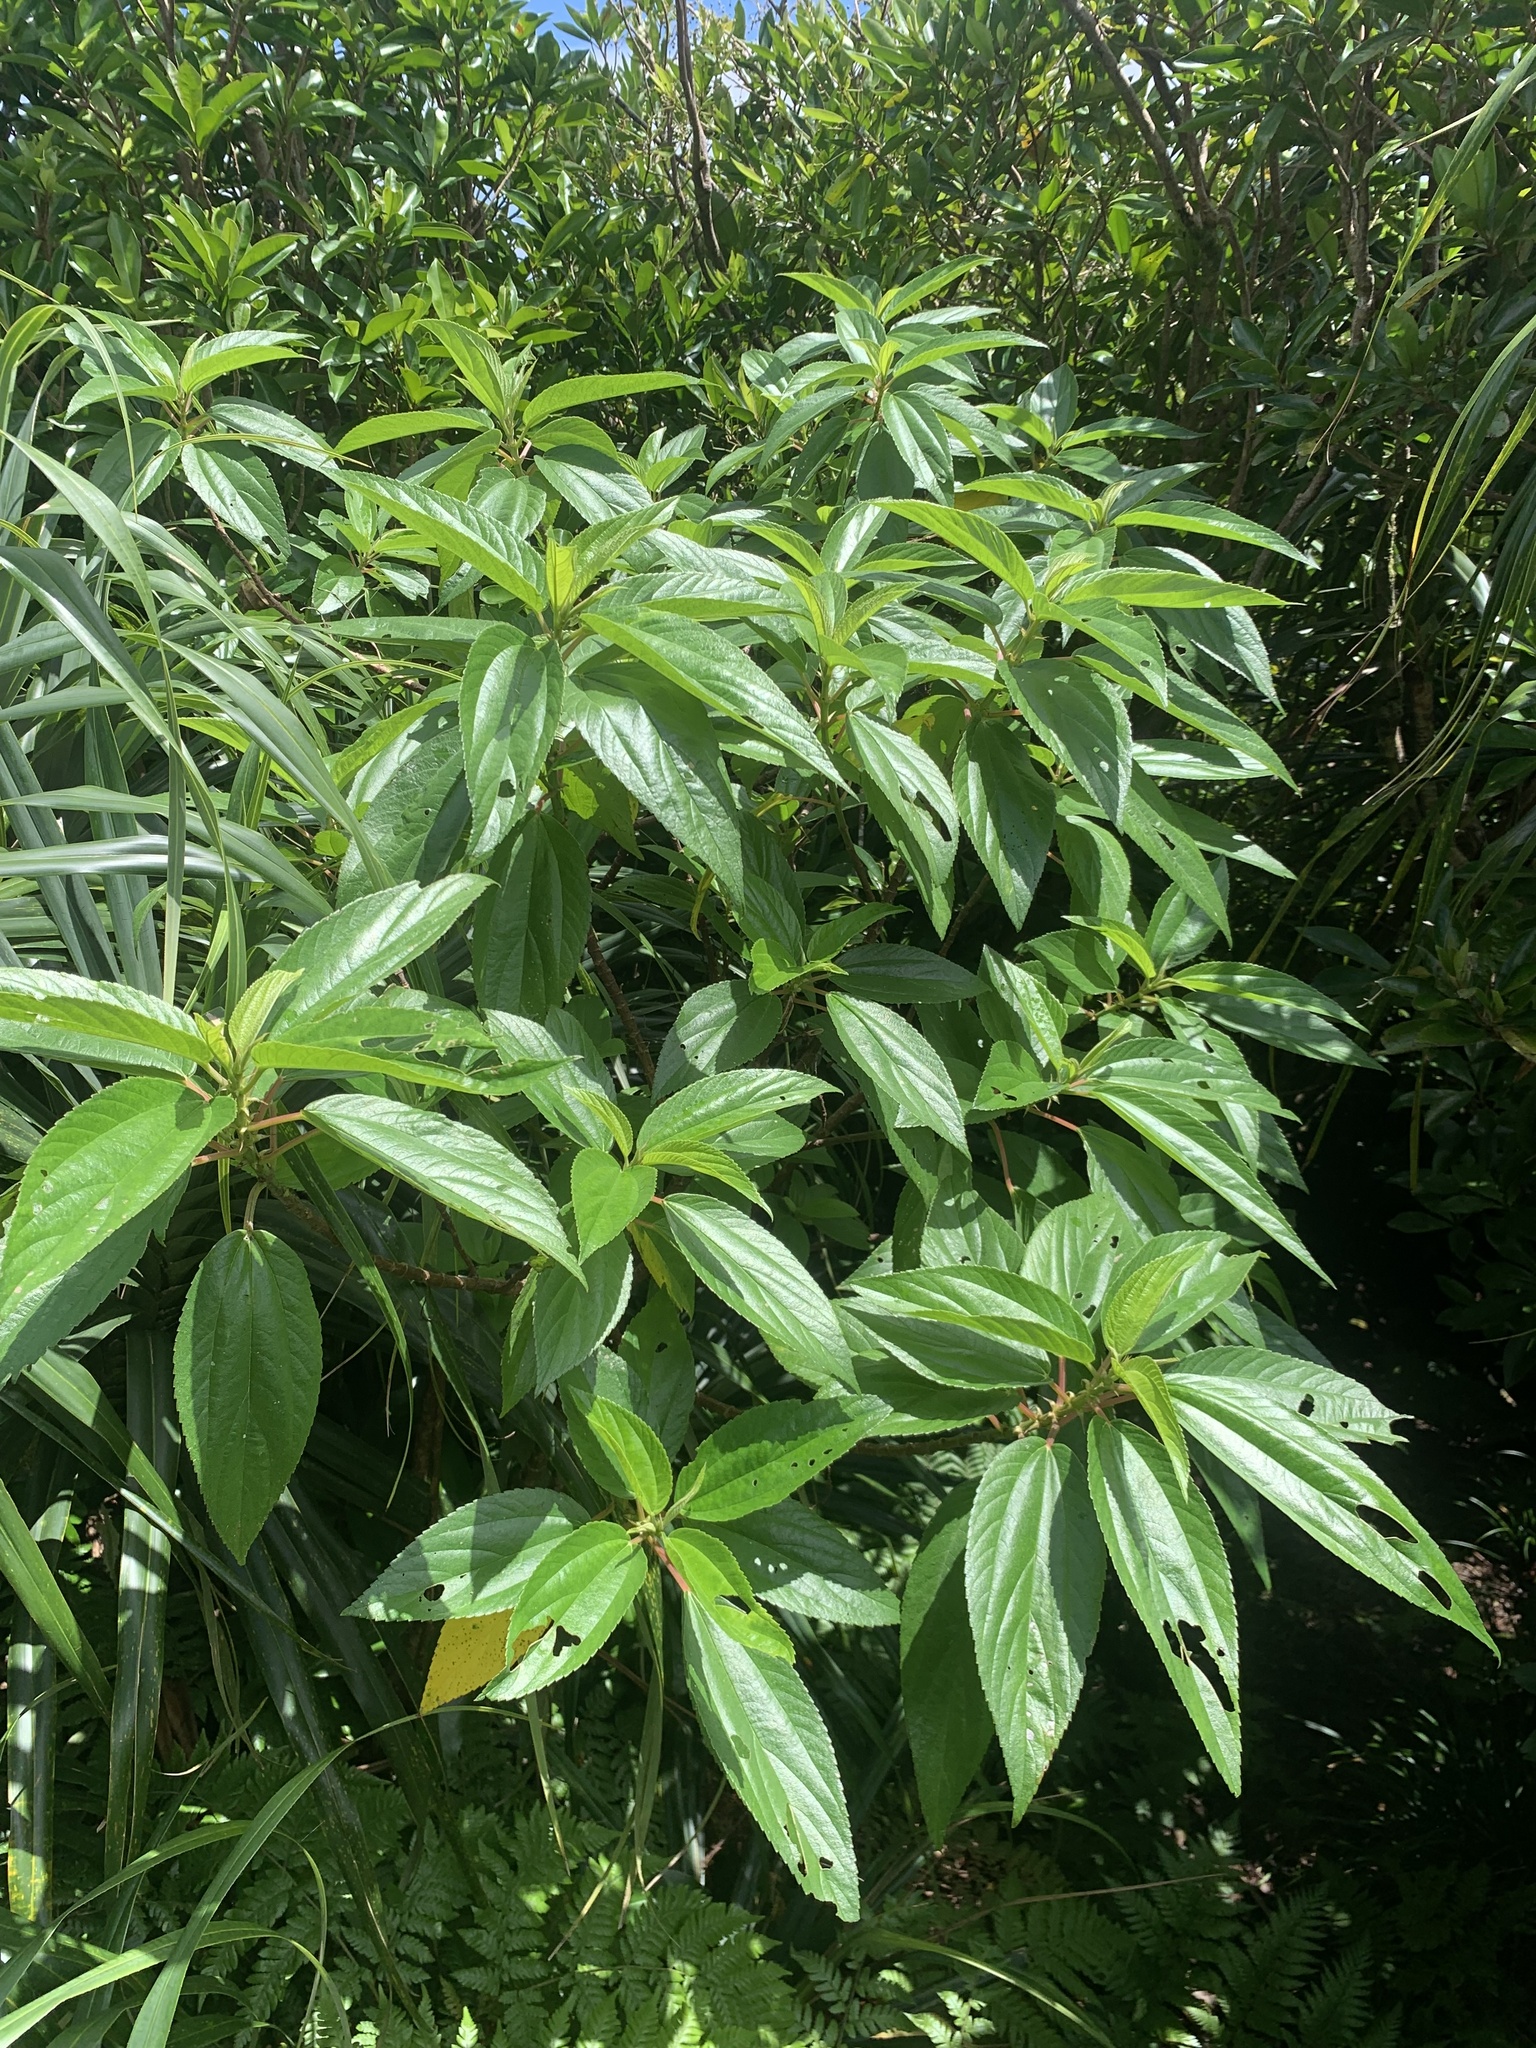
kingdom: Plantae
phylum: Tracheophyta
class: Magnoliopsida
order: Rosales
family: Urticaceae
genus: Boehmeria
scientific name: Boehmeria densiflora
